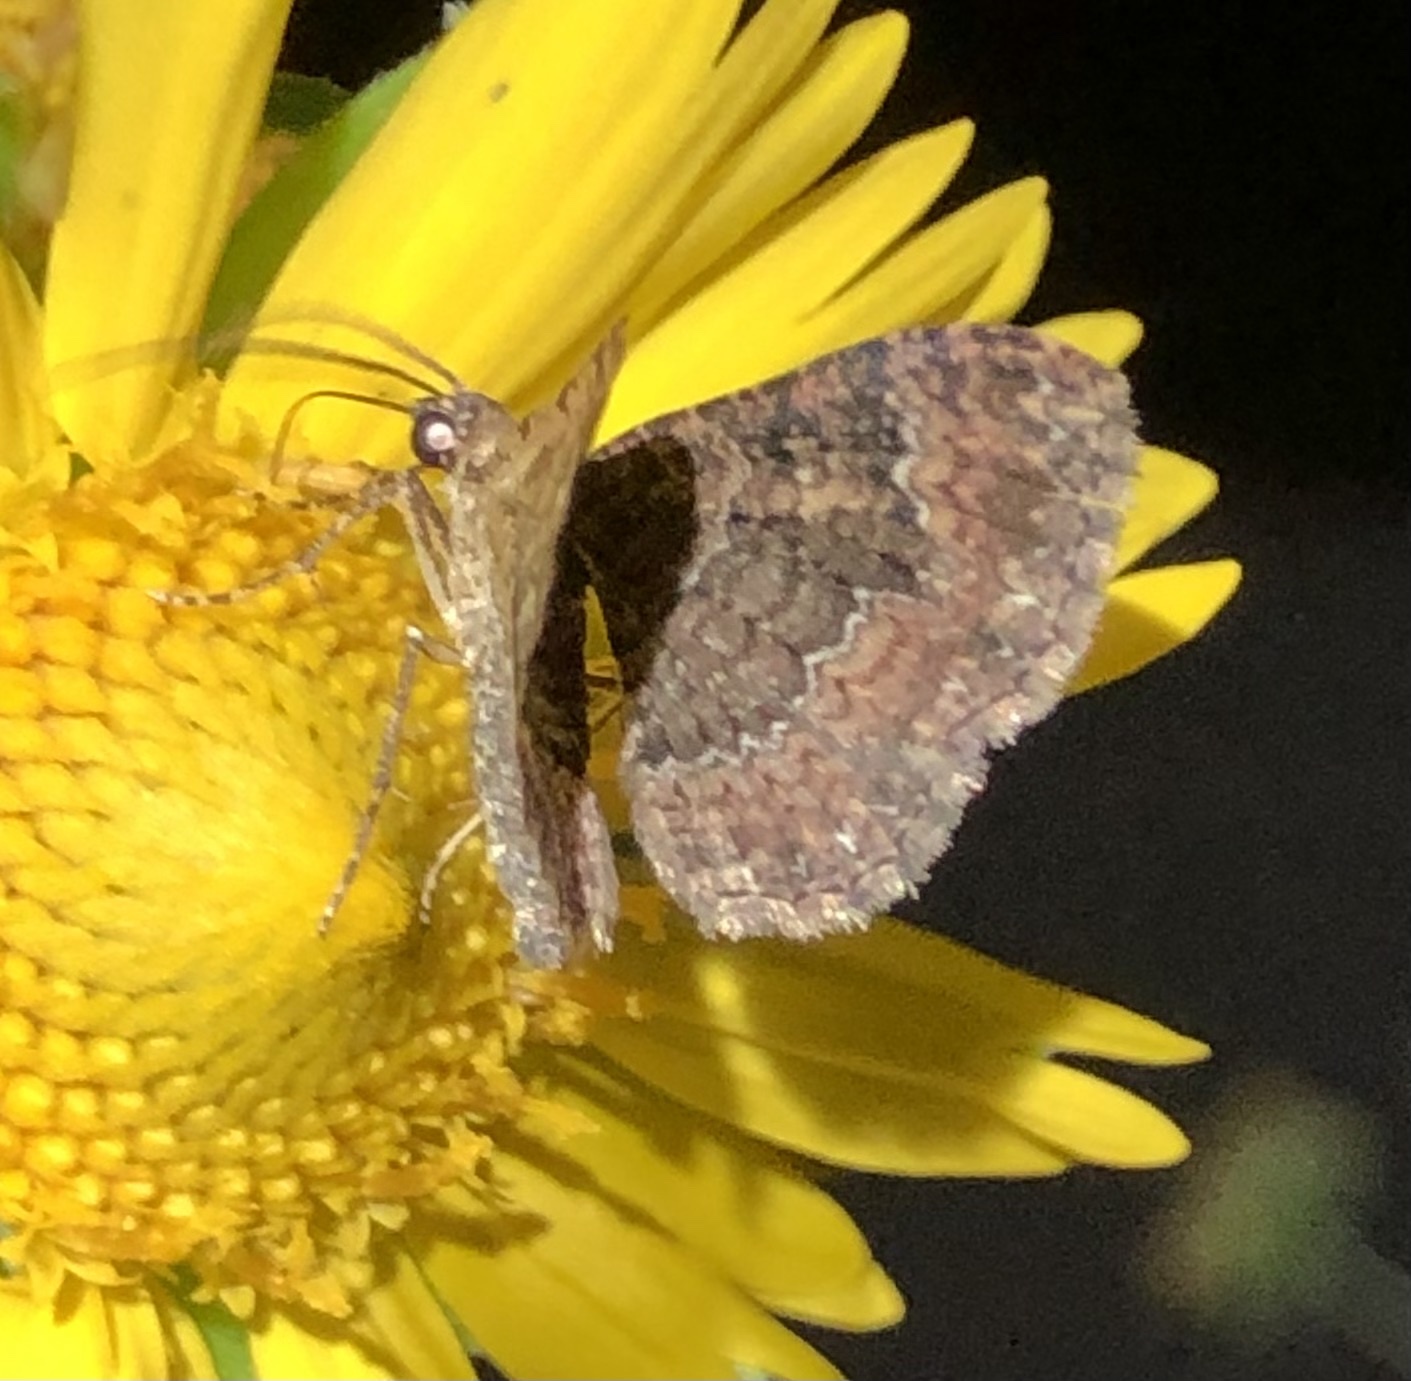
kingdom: Animalia
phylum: Arthropoda
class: Insecta
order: Lepidoptera
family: Geometridae
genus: Disclisioprocta
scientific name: Disclisioprocta stellata
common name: Somber carpet
